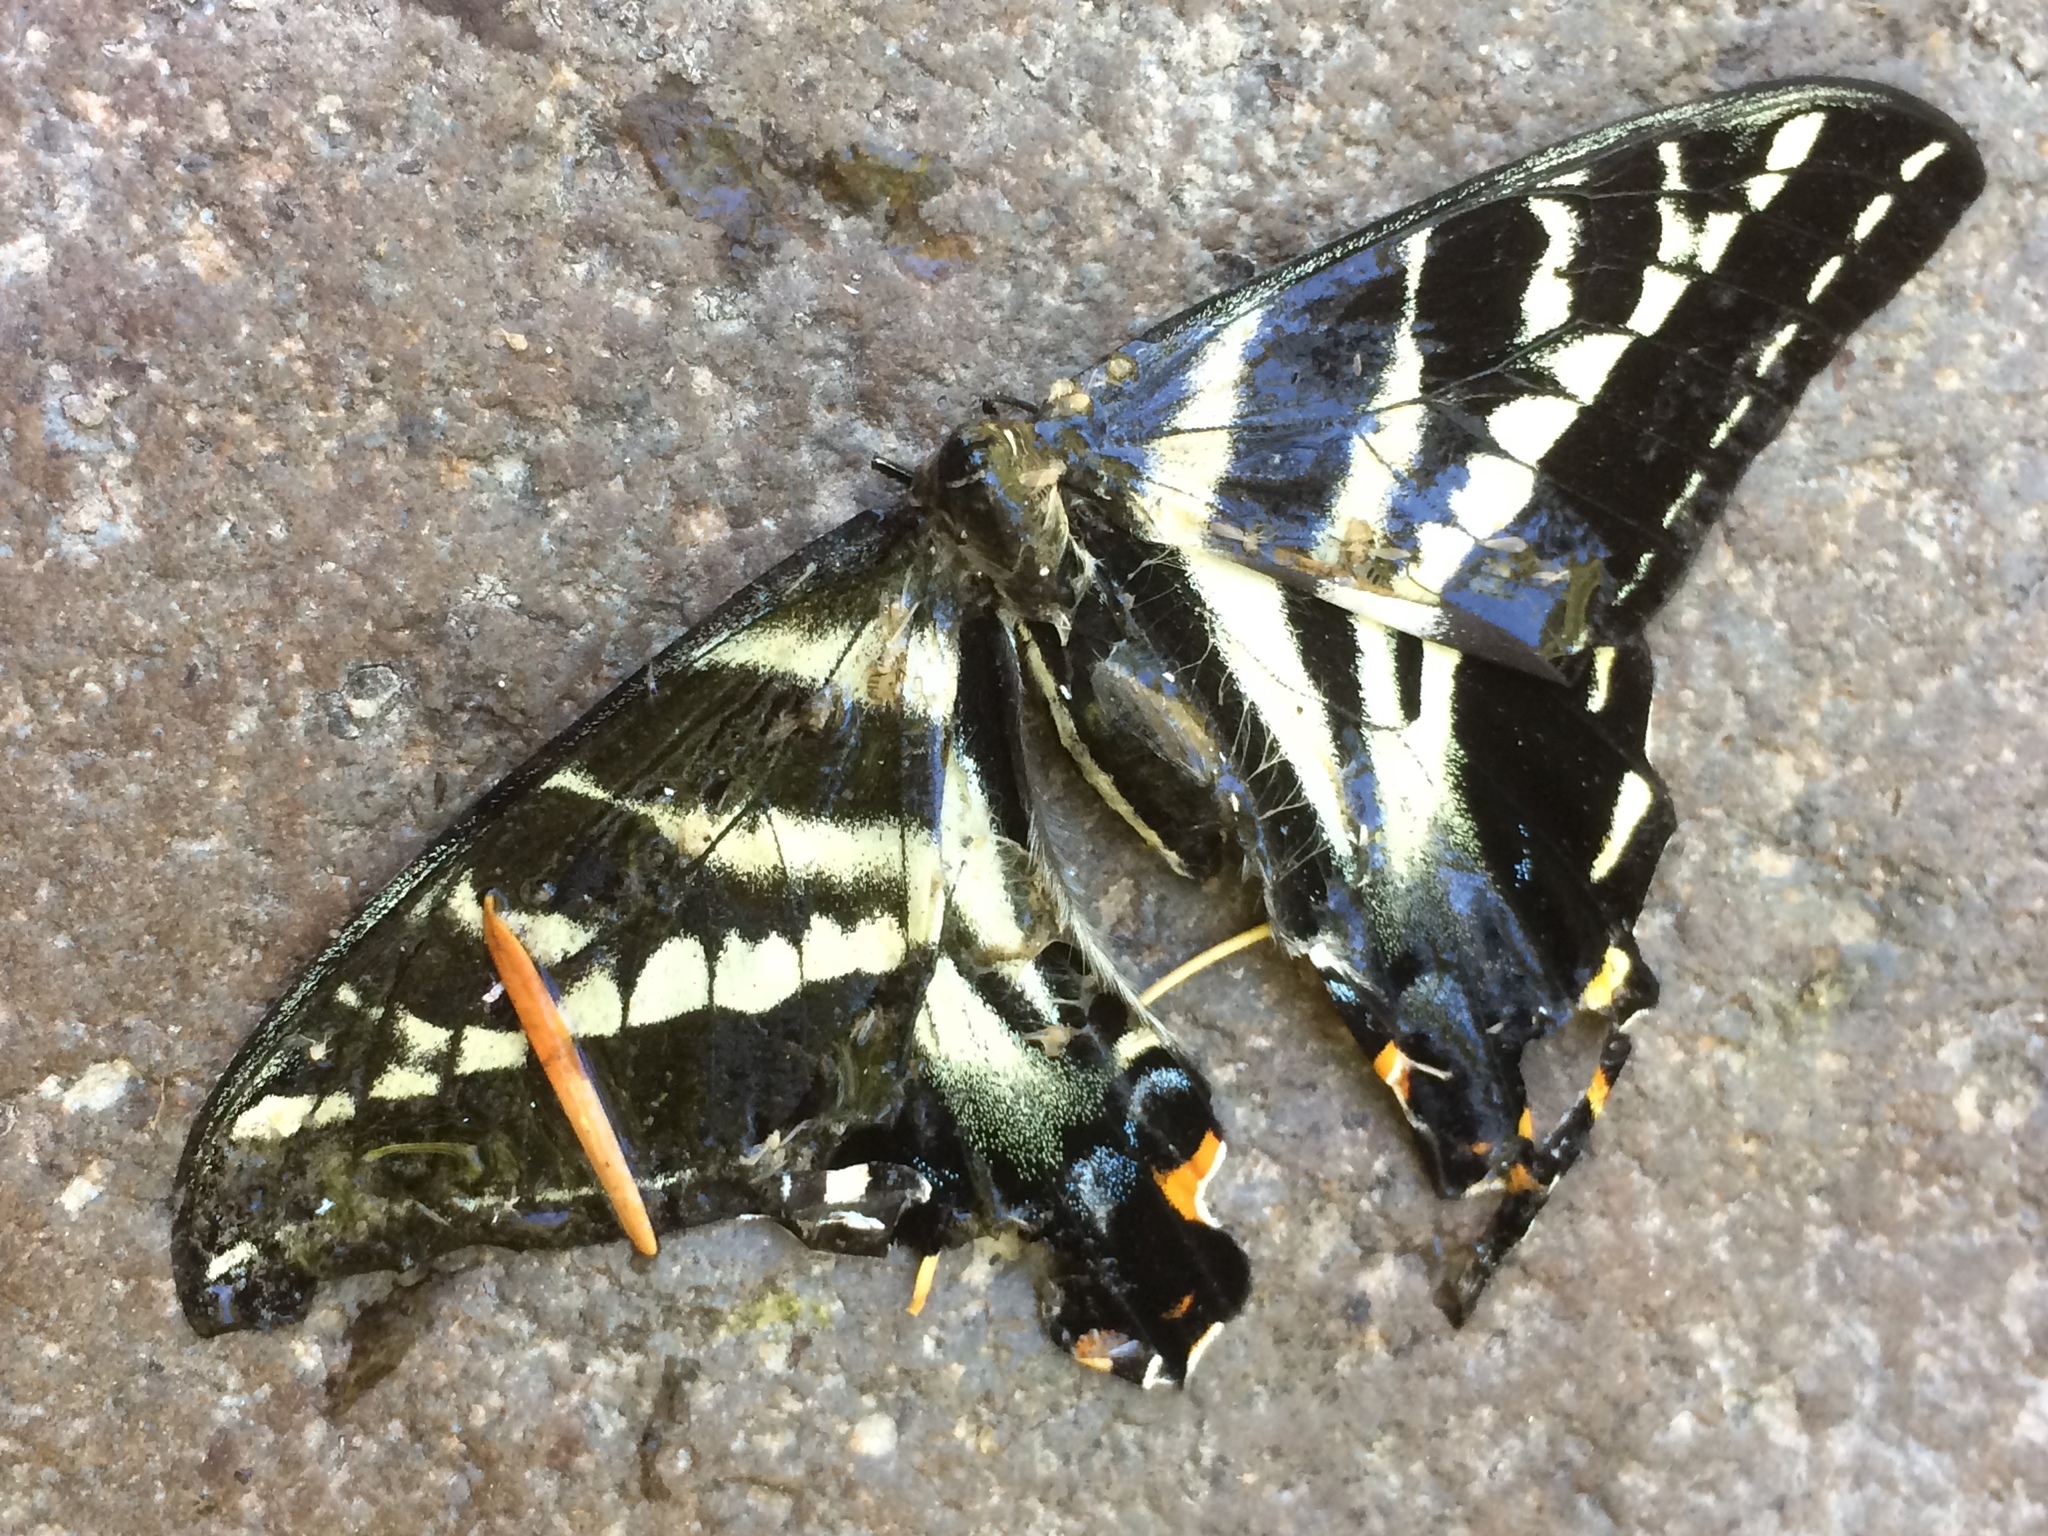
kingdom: Animalia
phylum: Arthropoda
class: Insecta
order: Lepidoptera
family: Papilionidae
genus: Papilio
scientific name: Papilio eurymedon
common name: Pale tiger swallowtail
